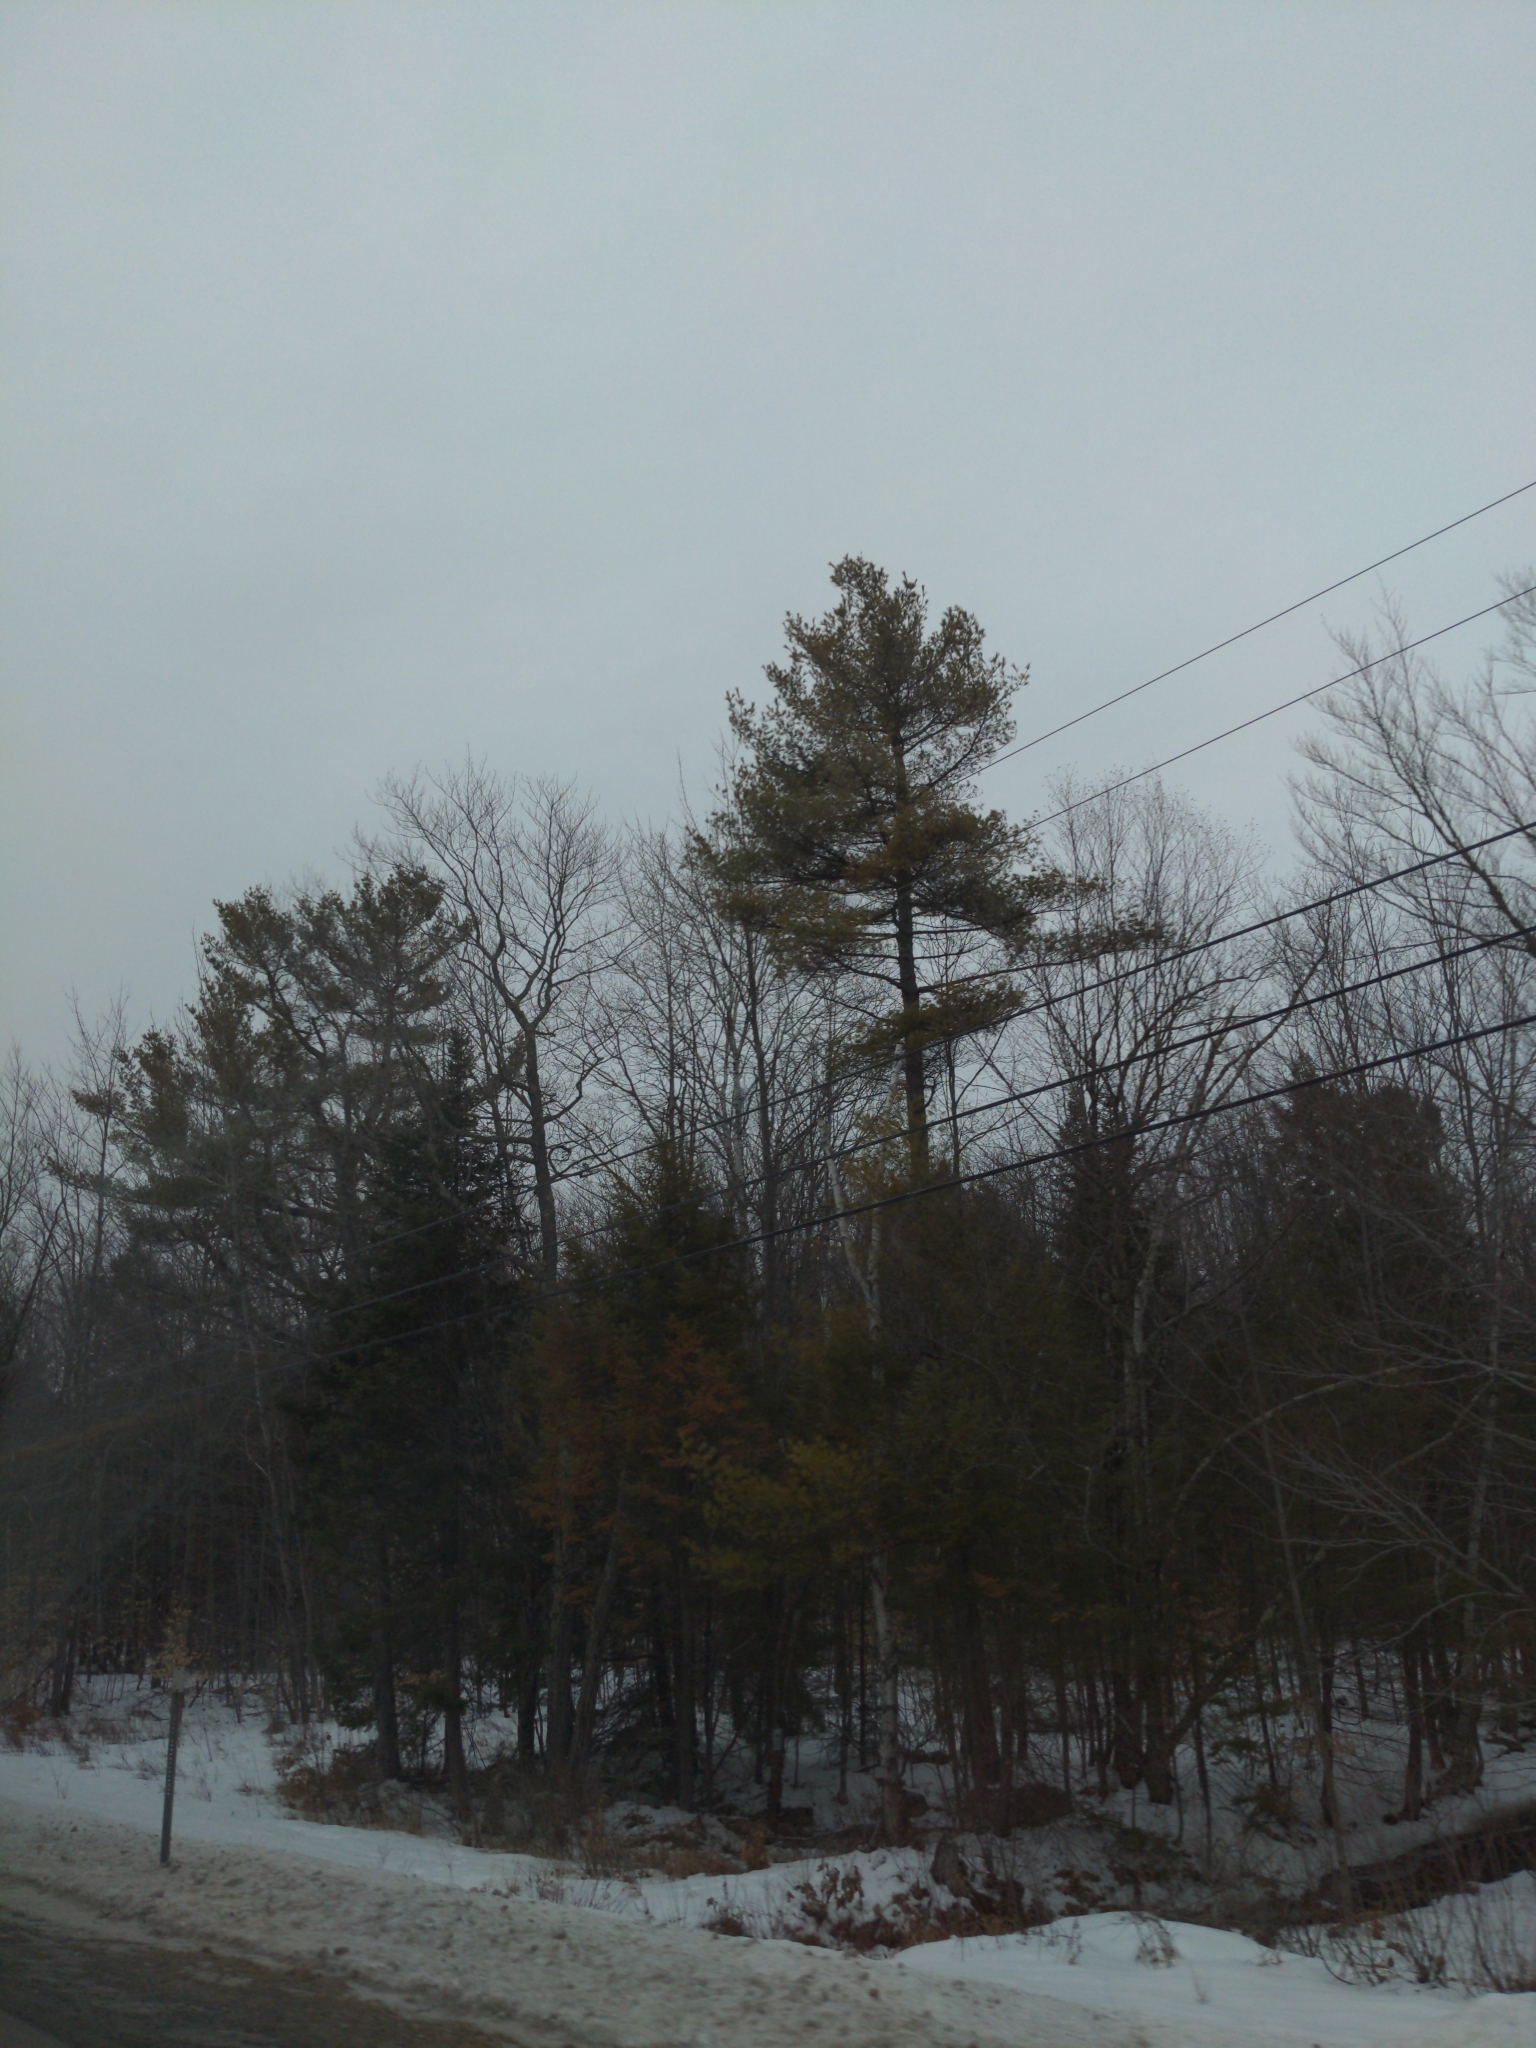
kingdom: Plantae
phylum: Tracheophyta
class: Pinopsida
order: Pinales
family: Pinaceae
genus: Pinus
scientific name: Pinus strobus
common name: Weymouth pine
